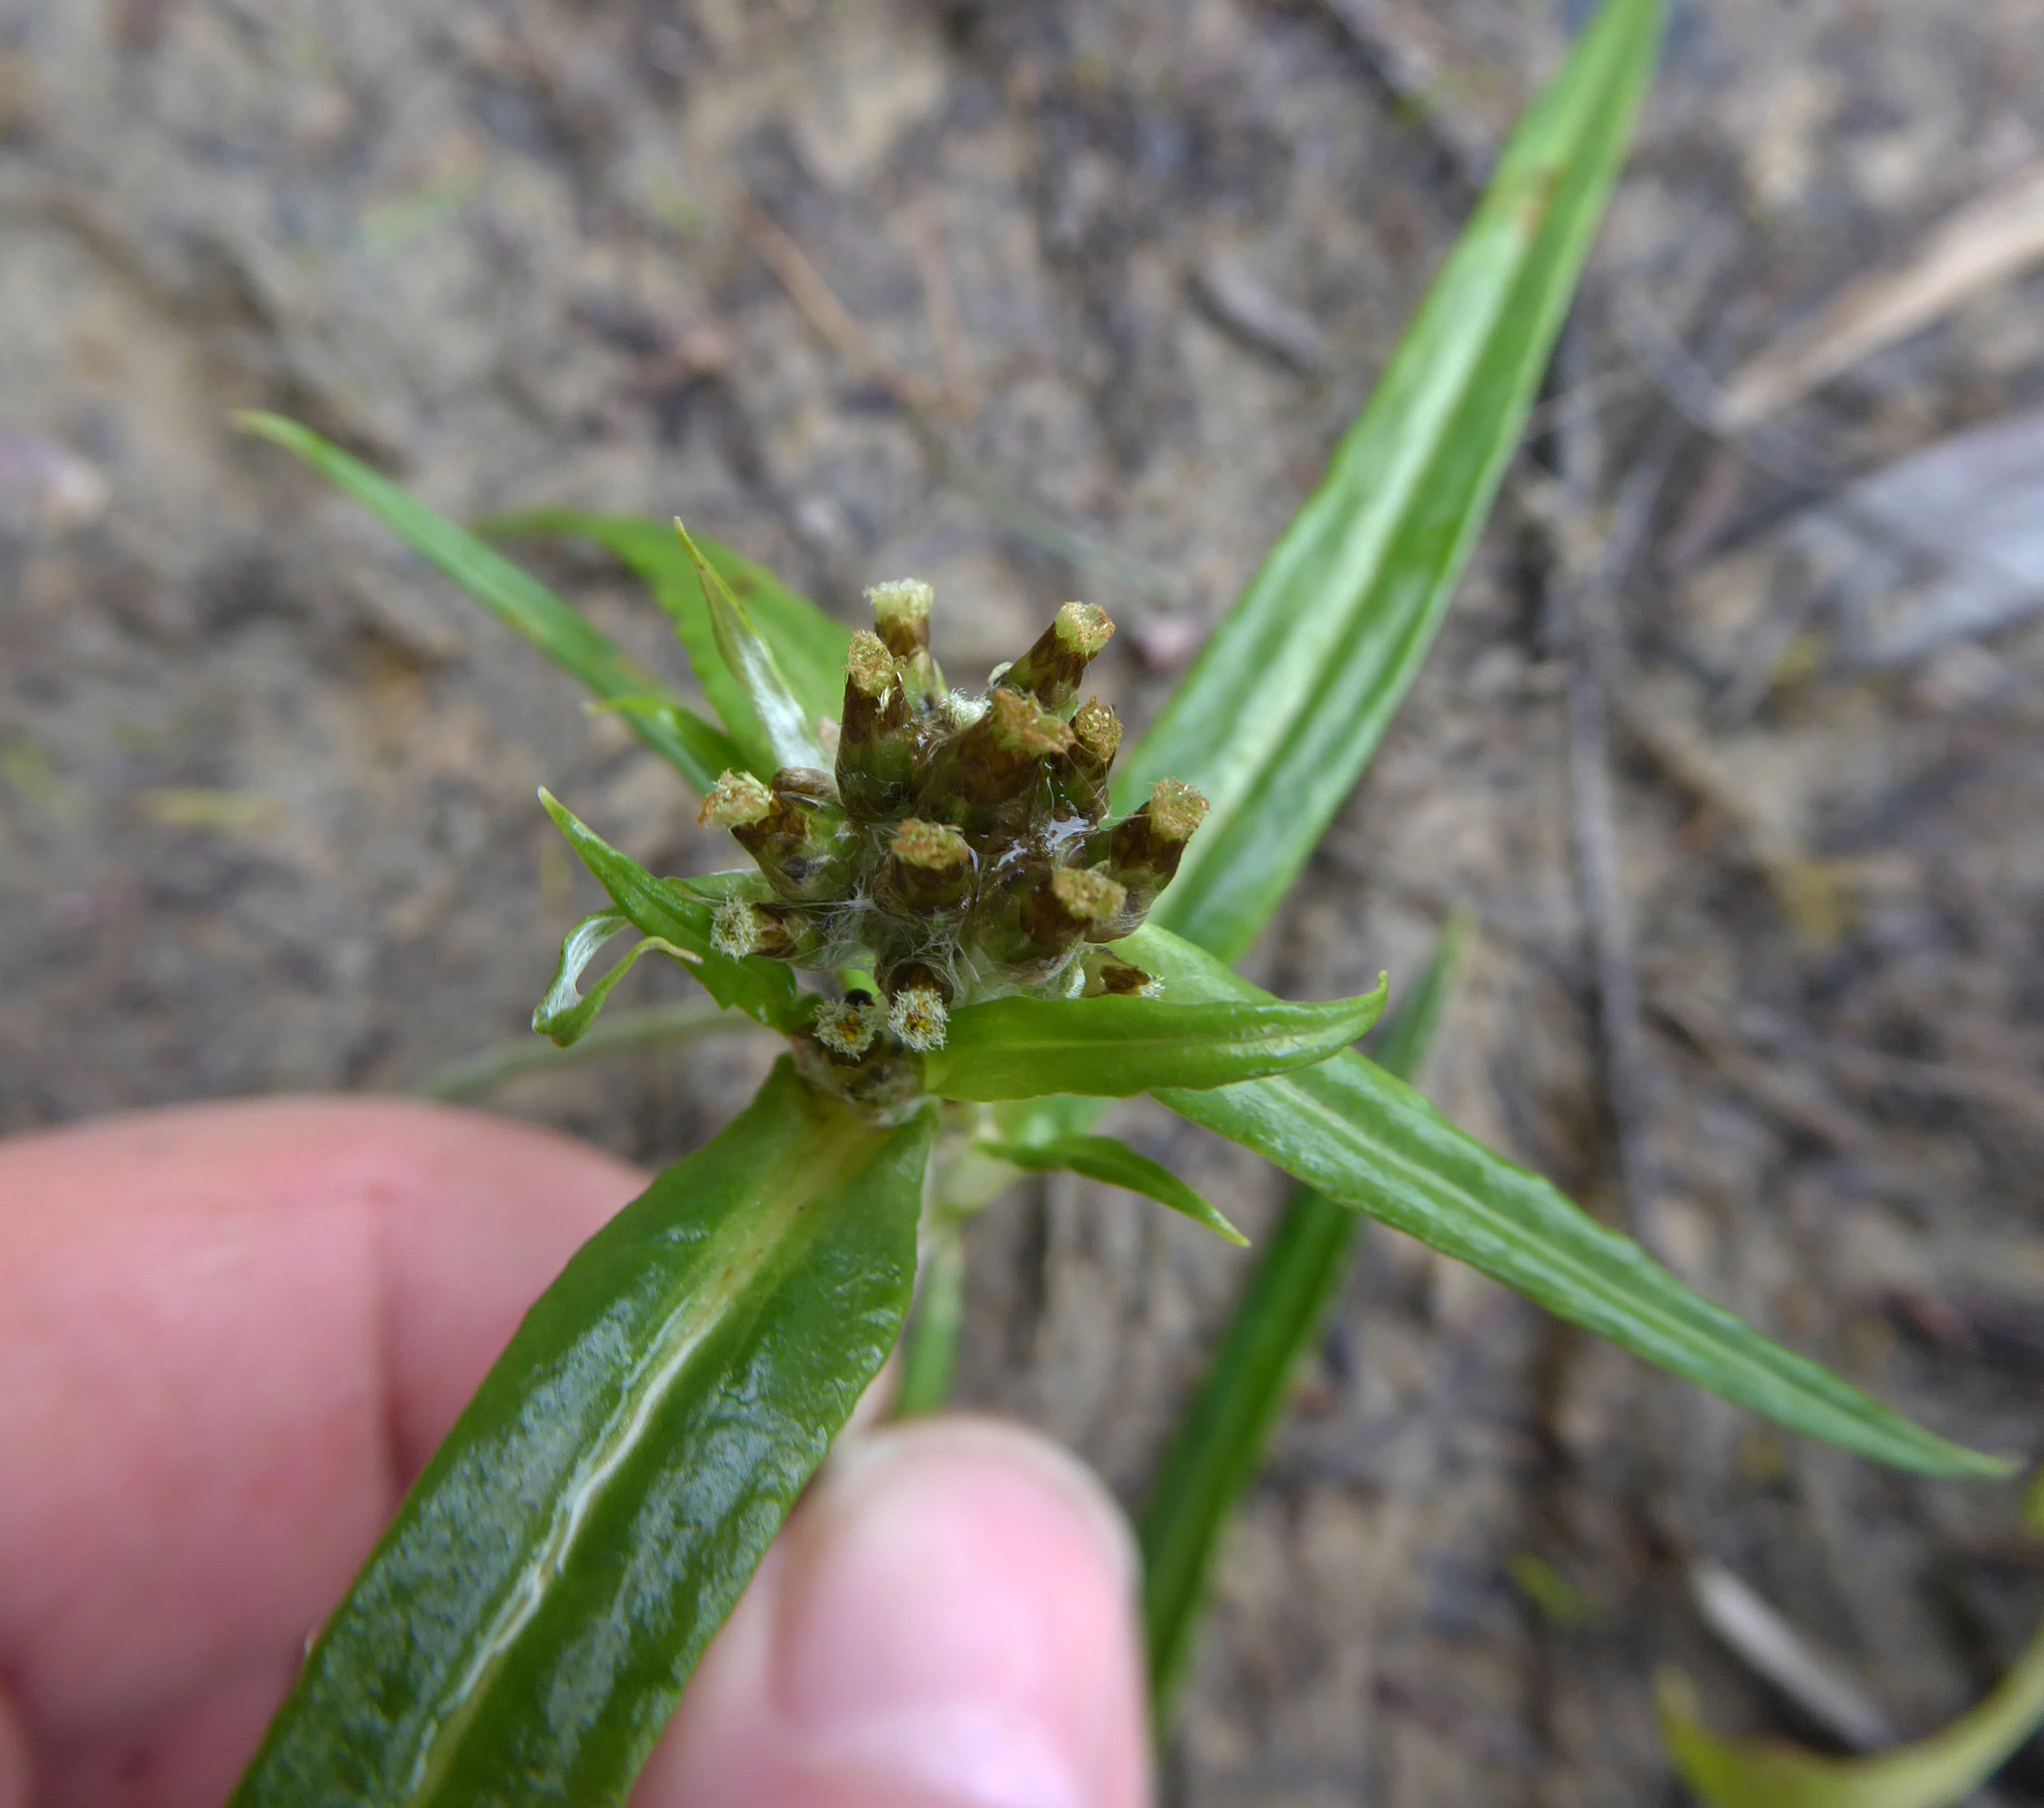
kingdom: Plantae
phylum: Tracheophyta
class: Magnoliopsida
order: Asterales
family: Asteraceae
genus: Euchiton
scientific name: Euchiton involucratus
